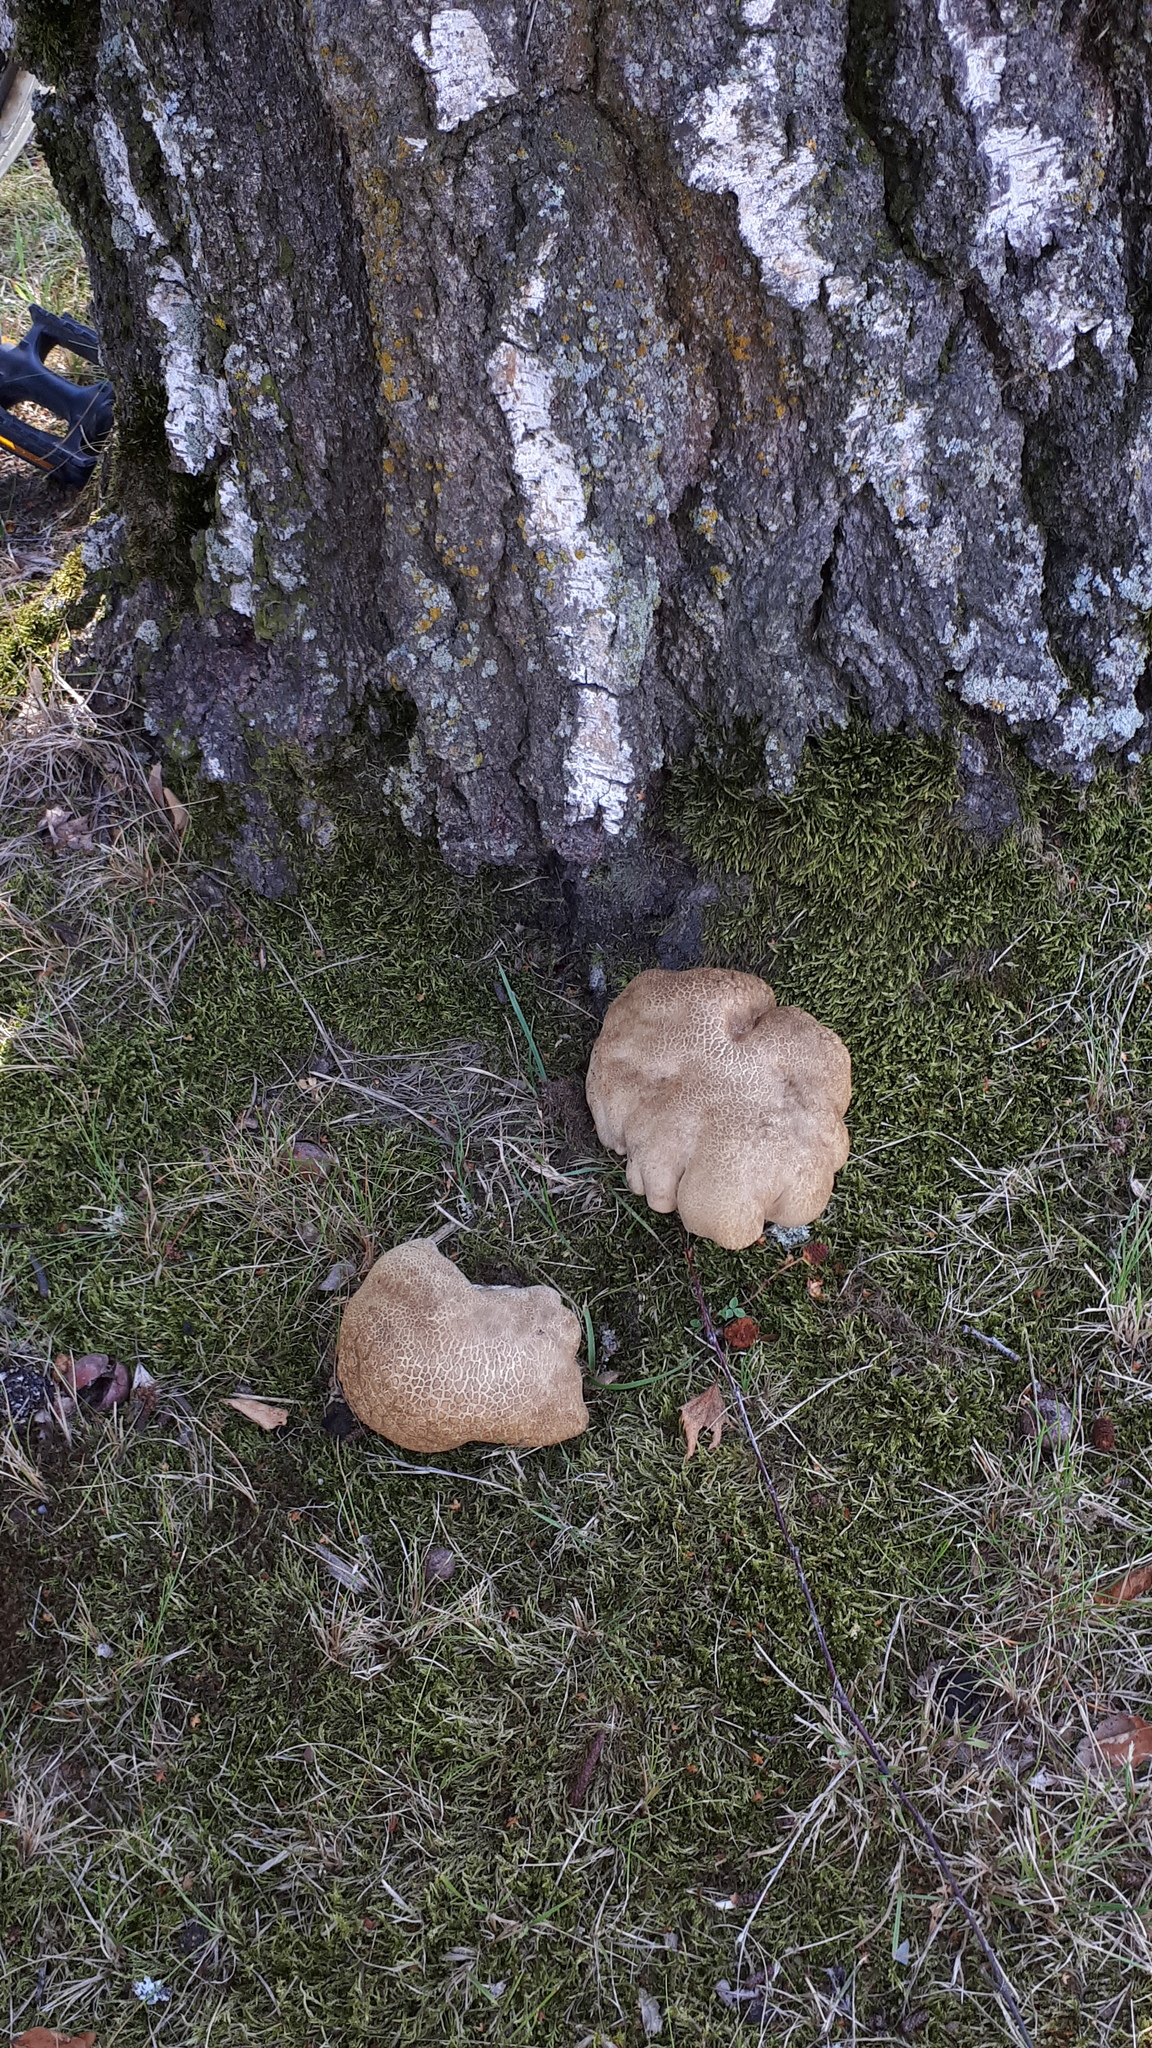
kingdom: Fungi
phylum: Basidiomycota
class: Agaricomycetes
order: Boletales
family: Boletaceae
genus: Caloboletus
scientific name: Caloboletus radicans
